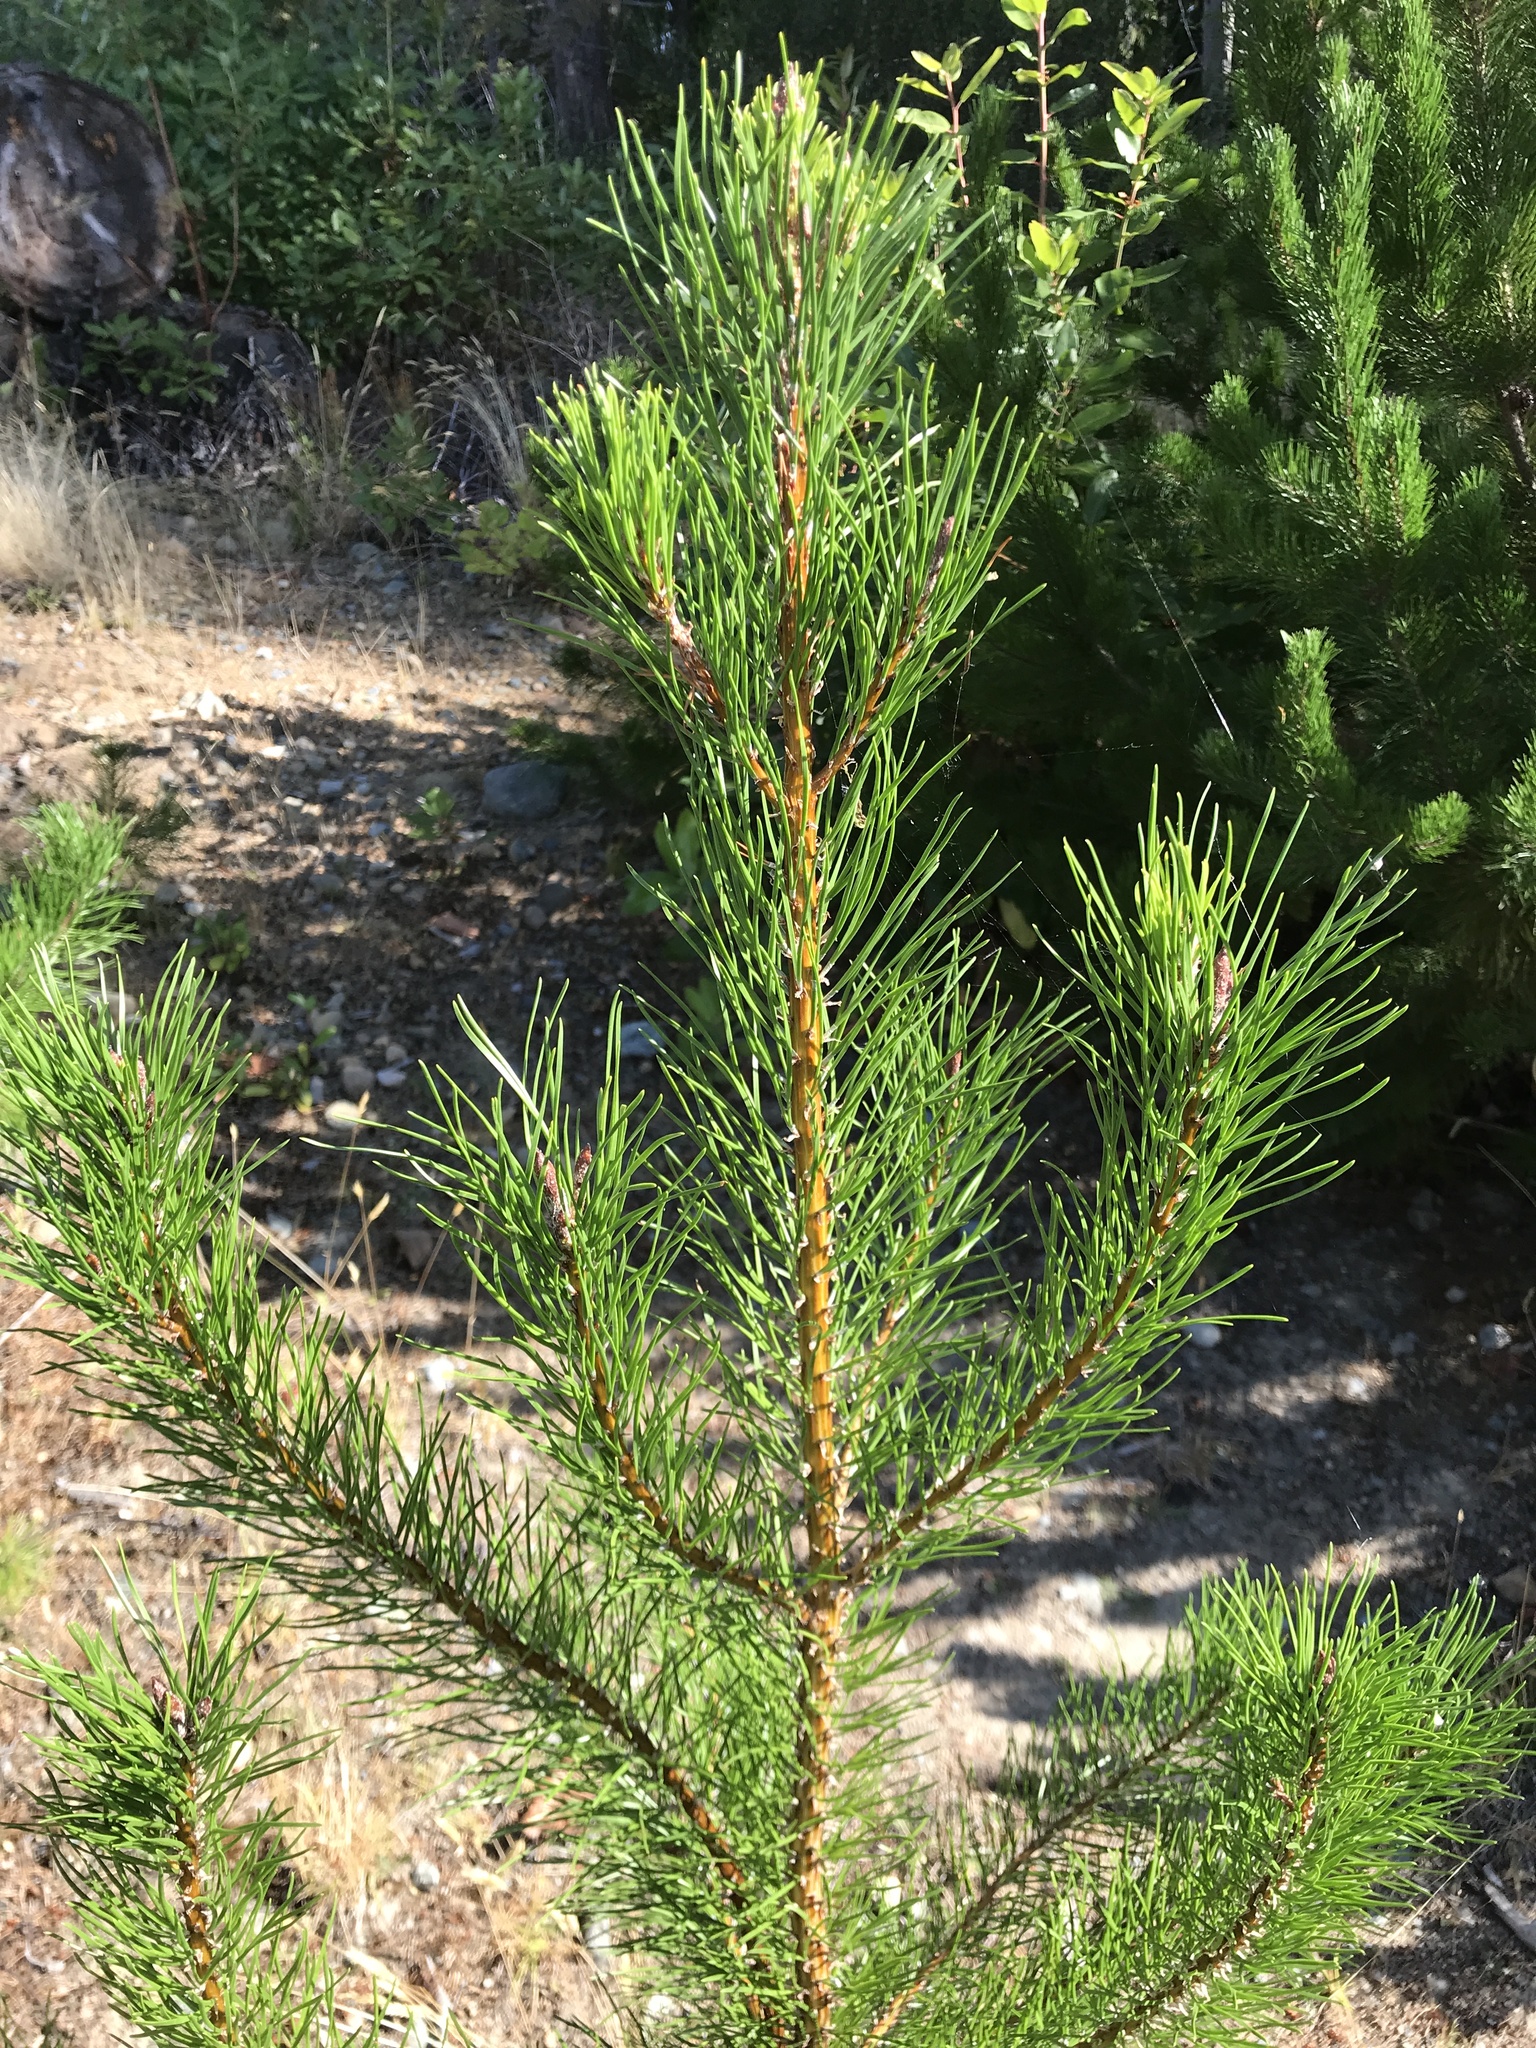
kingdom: Plantae
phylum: Tracheophyta
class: Pinopsida
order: Pinales
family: Pinaceae
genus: Pinus
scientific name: Pinus contorta
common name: Lodgepole pine
